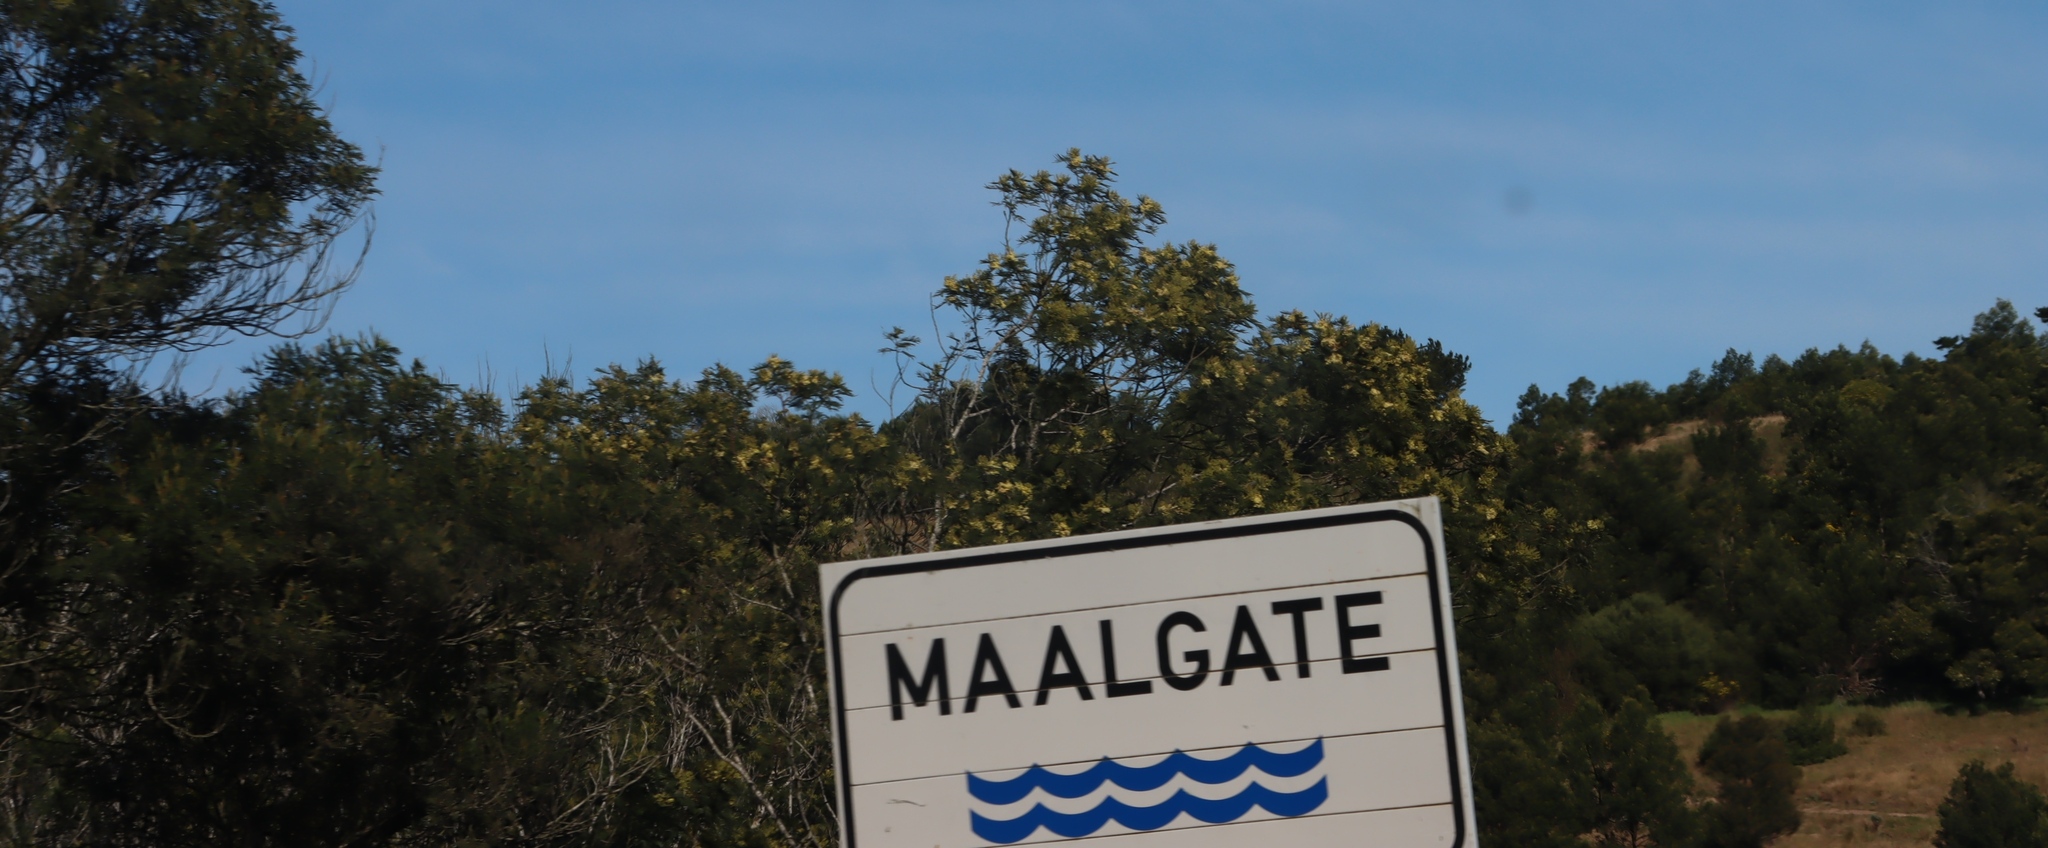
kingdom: Plantae
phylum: Tracheophyta
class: Magnoliopsida
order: Fabales
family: Fabaceae
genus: Acacia
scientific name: Acacia mearnsii
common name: Black wattle
